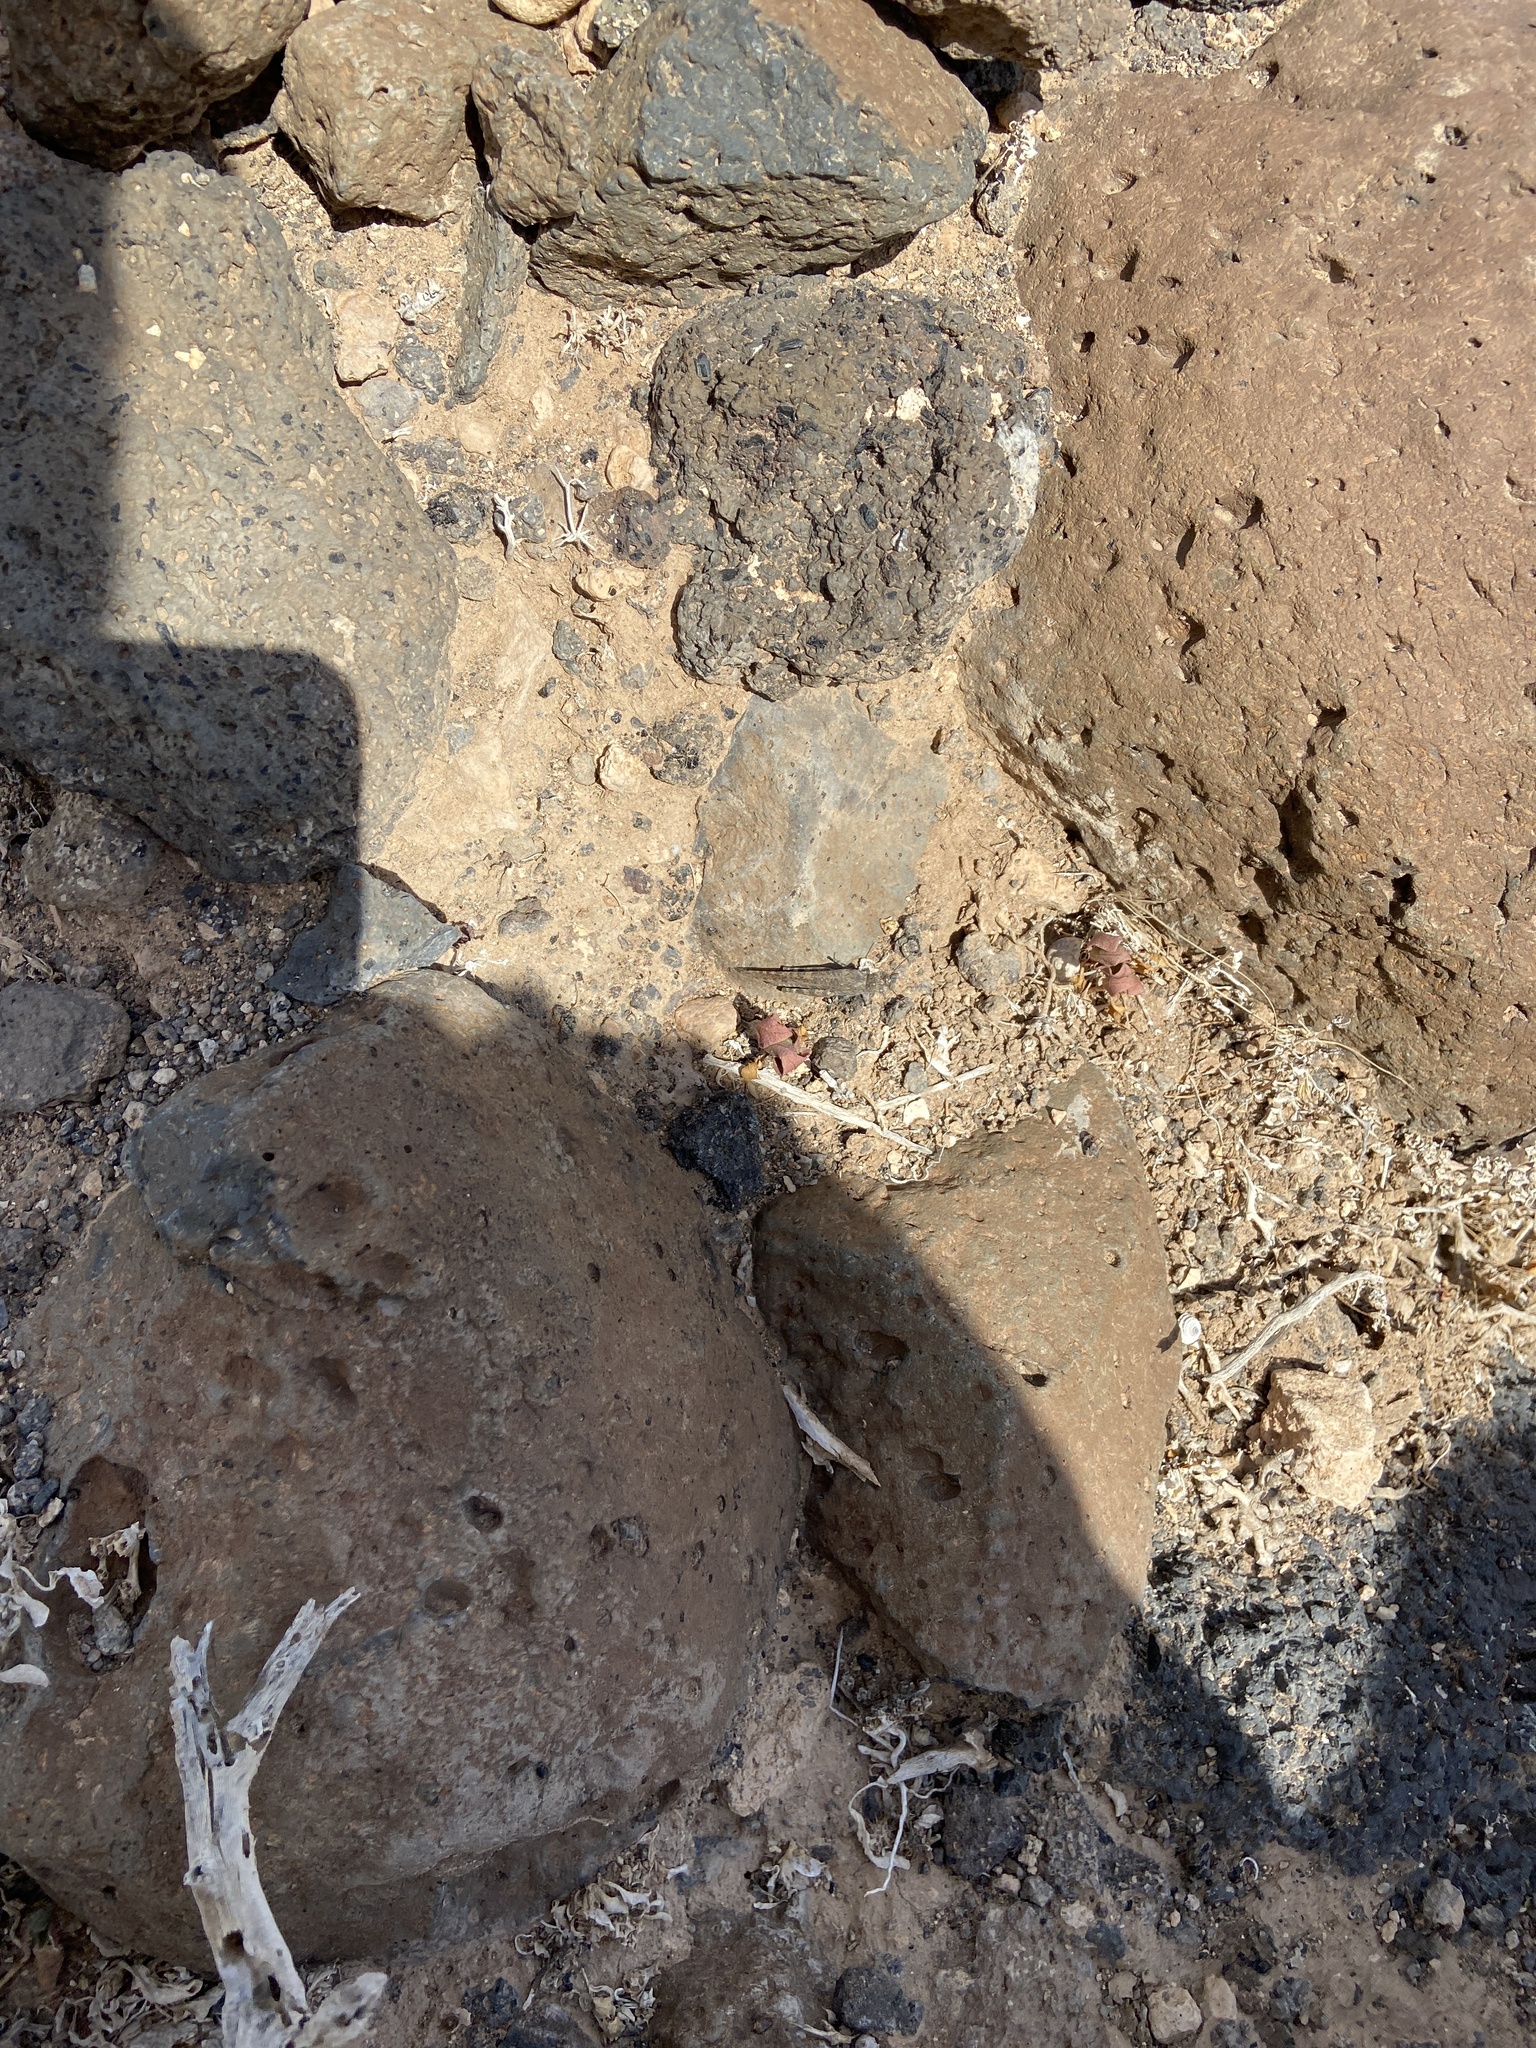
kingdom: Animalia
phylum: Arthropoda
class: Insecta
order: Orthoptera
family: Acrididae
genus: Sphingonotus
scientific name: Sphingonotus rubescens
